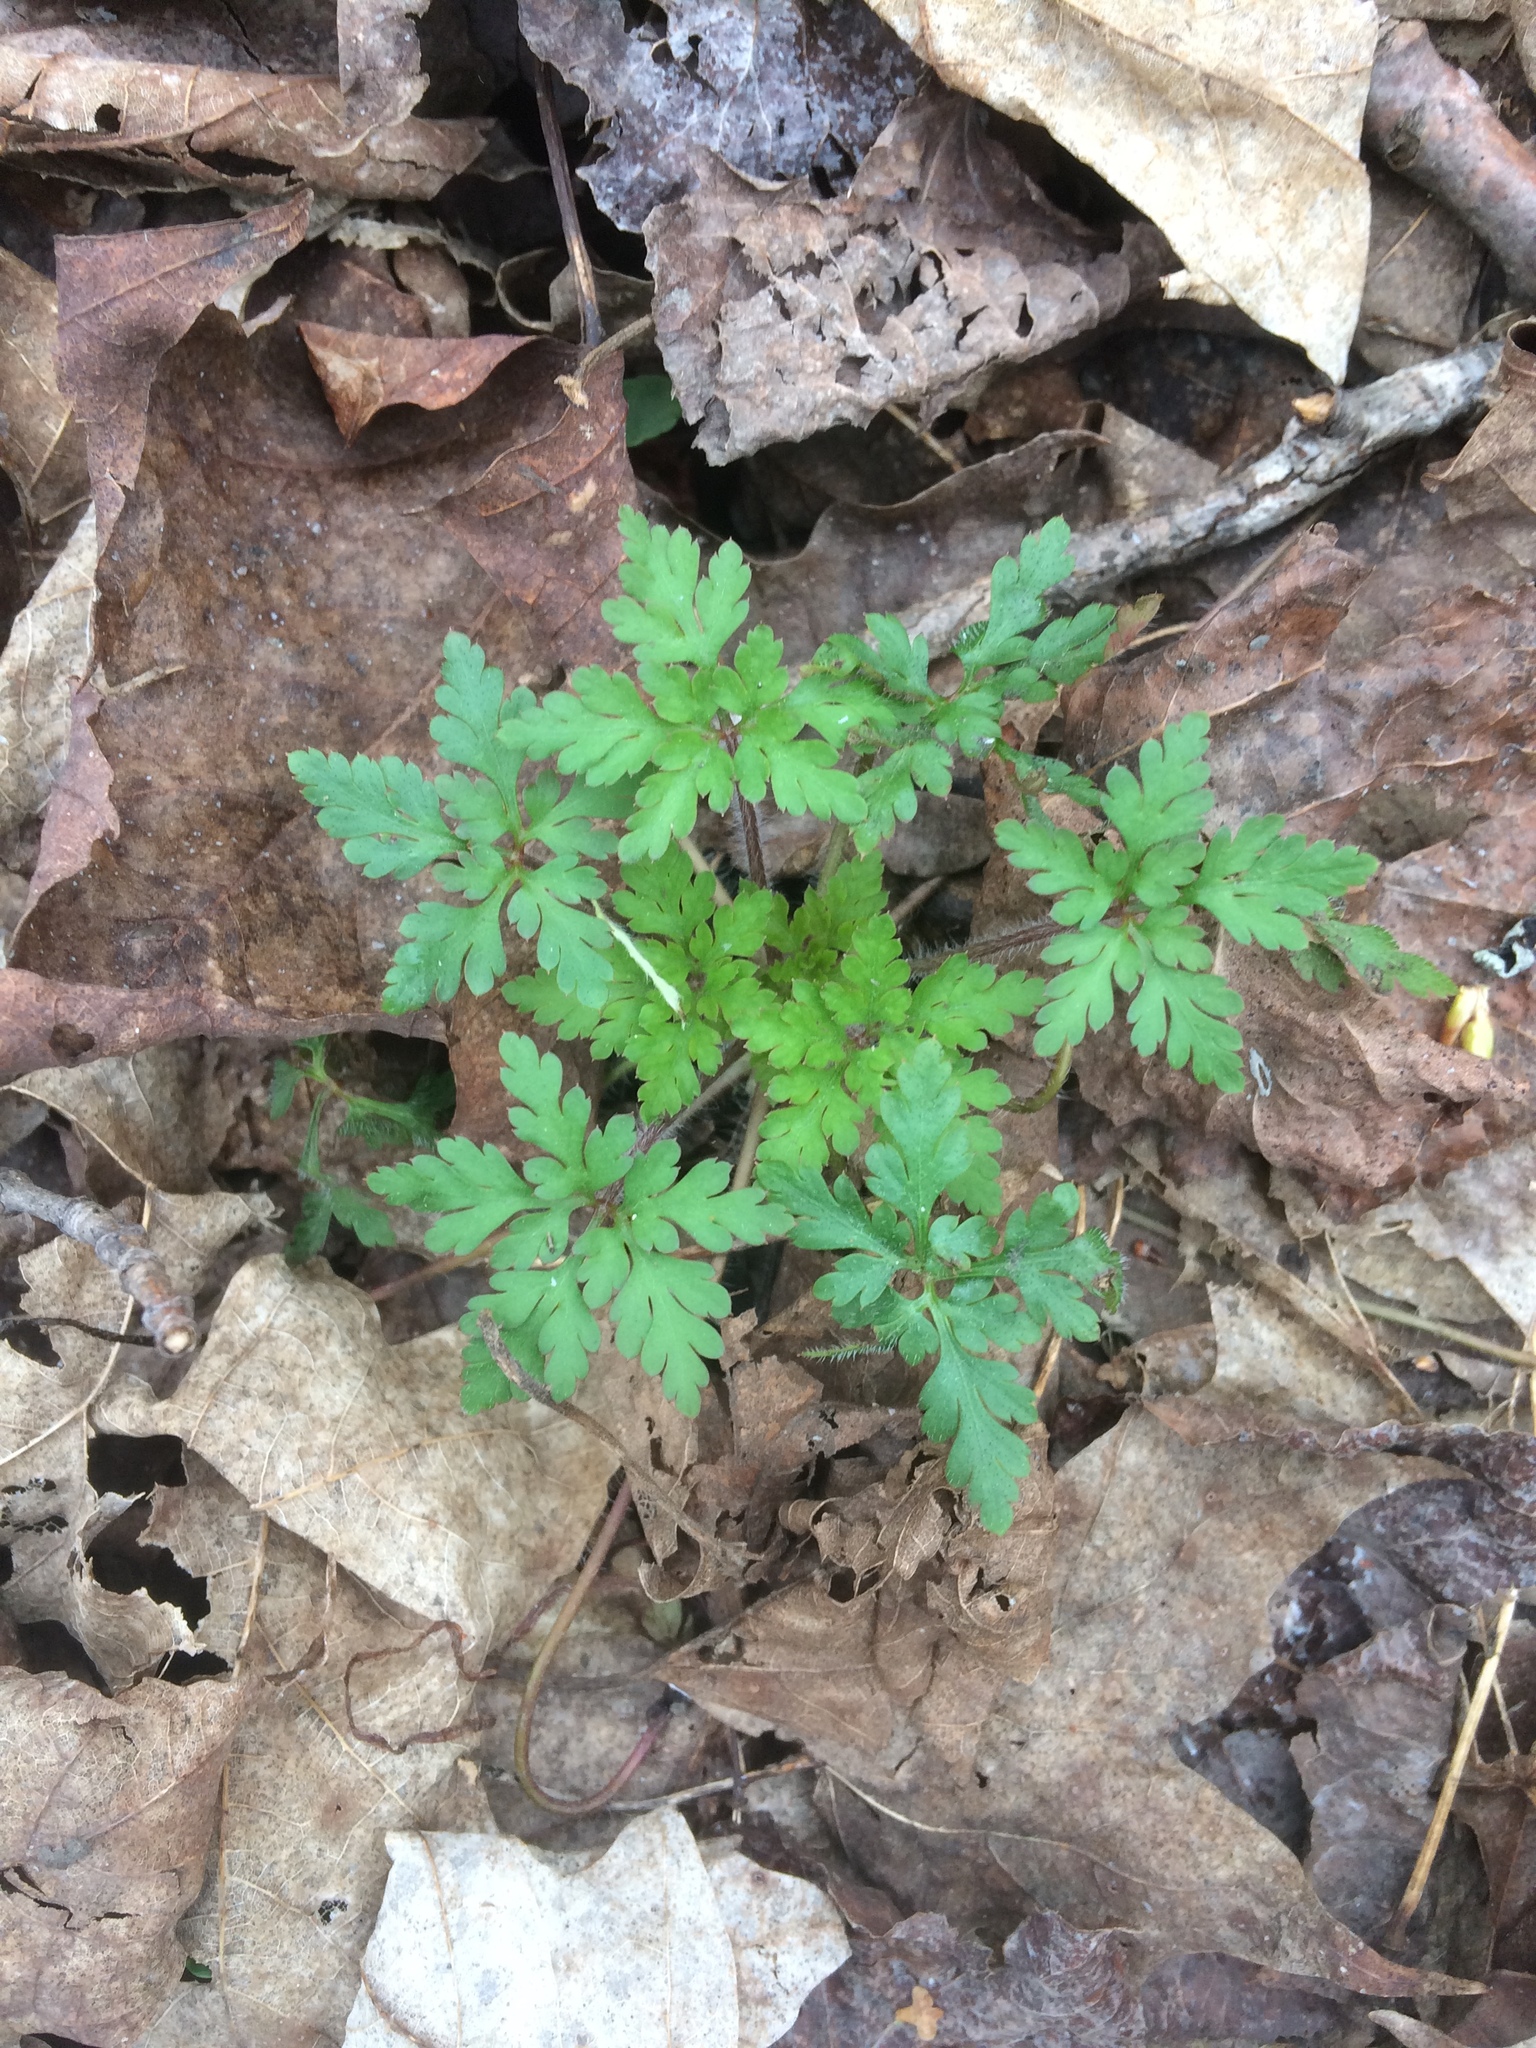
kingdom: Plantae
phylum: Tracheophyta
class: Magnoliopsida
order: Geraniales
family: Geraniaceae
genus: Geranium
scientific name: Geranium robertianum
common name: Herb-robert
